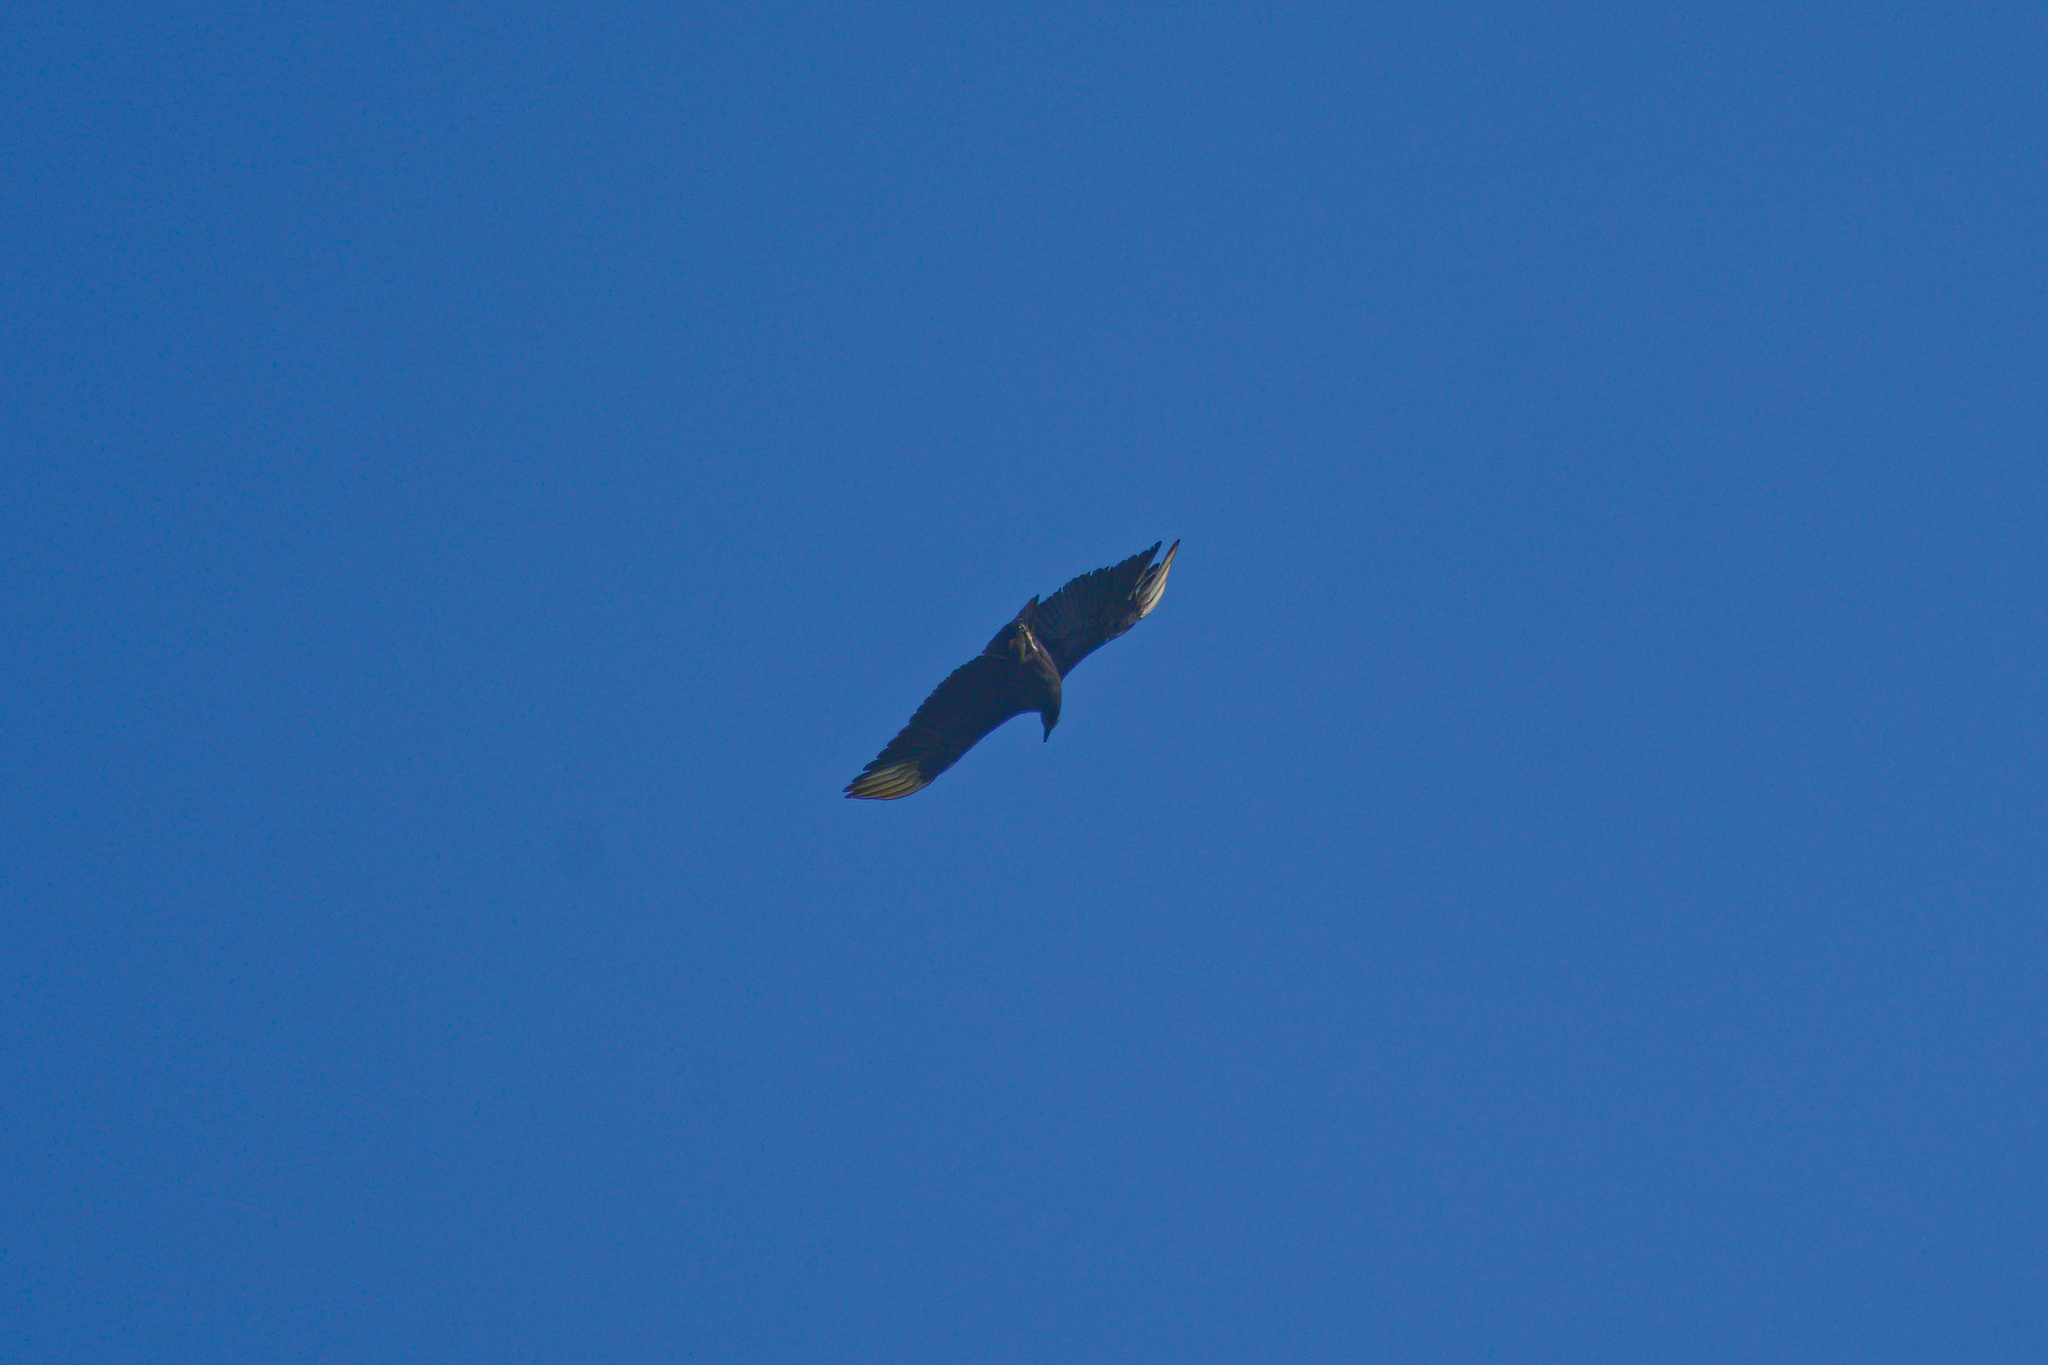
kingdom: Animalia
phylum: Chordata
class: Aves
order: Accipitriformes
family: Cathartidae
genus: Coragyps
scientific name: Coragyps atratus
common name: Black vulture
